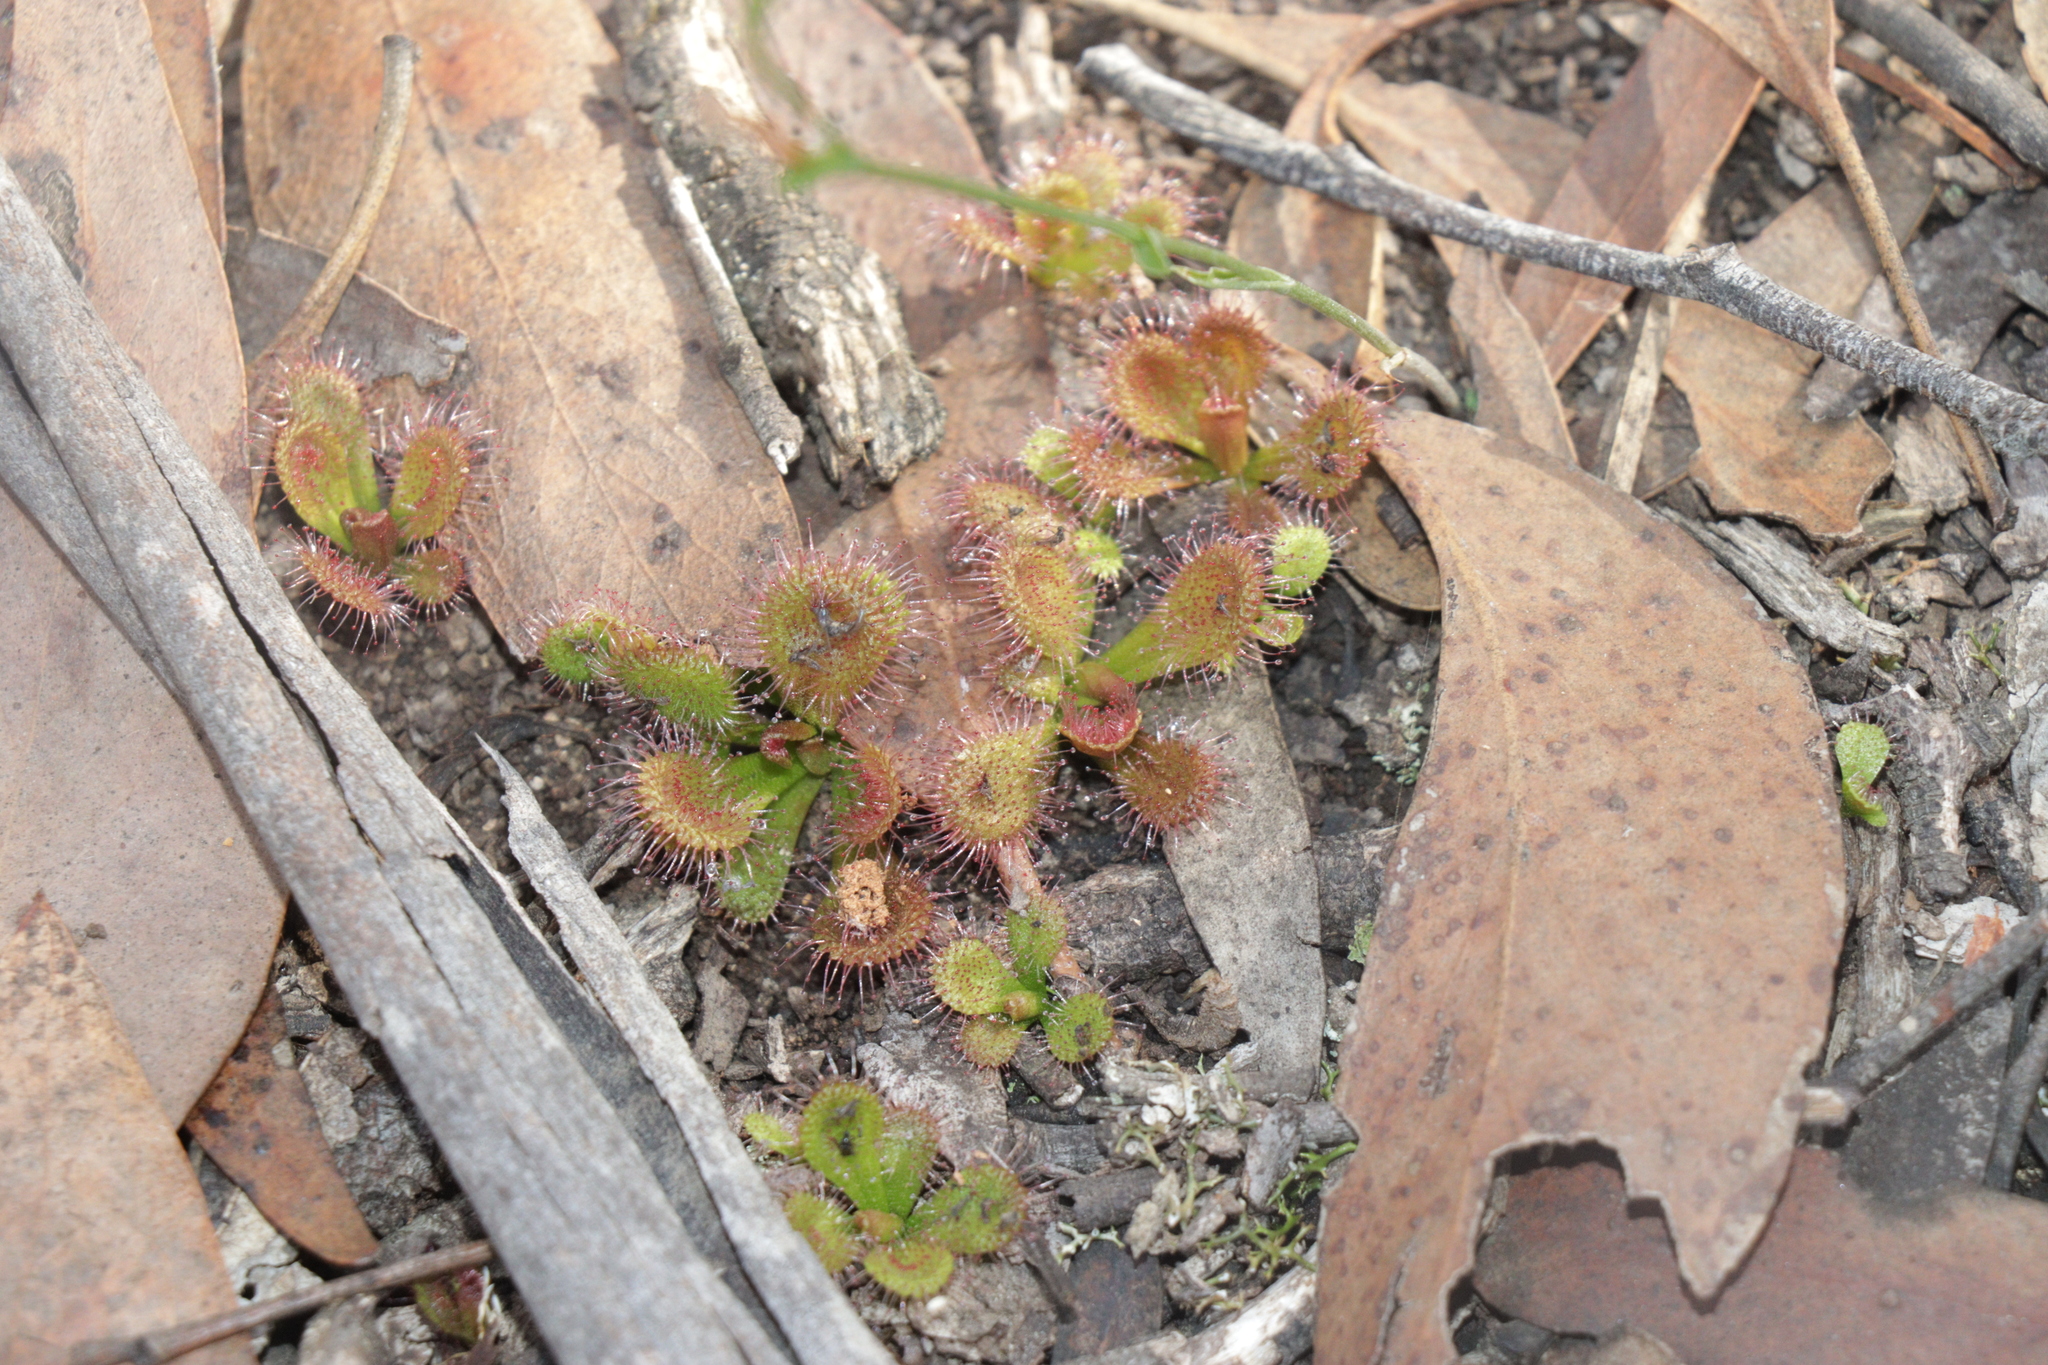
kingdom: Plantae
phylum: Tracheophyta
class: Magnoliopsida
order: Caryophyllales
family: Droseraceae
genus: Drosera
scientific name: Drosera aberrans
